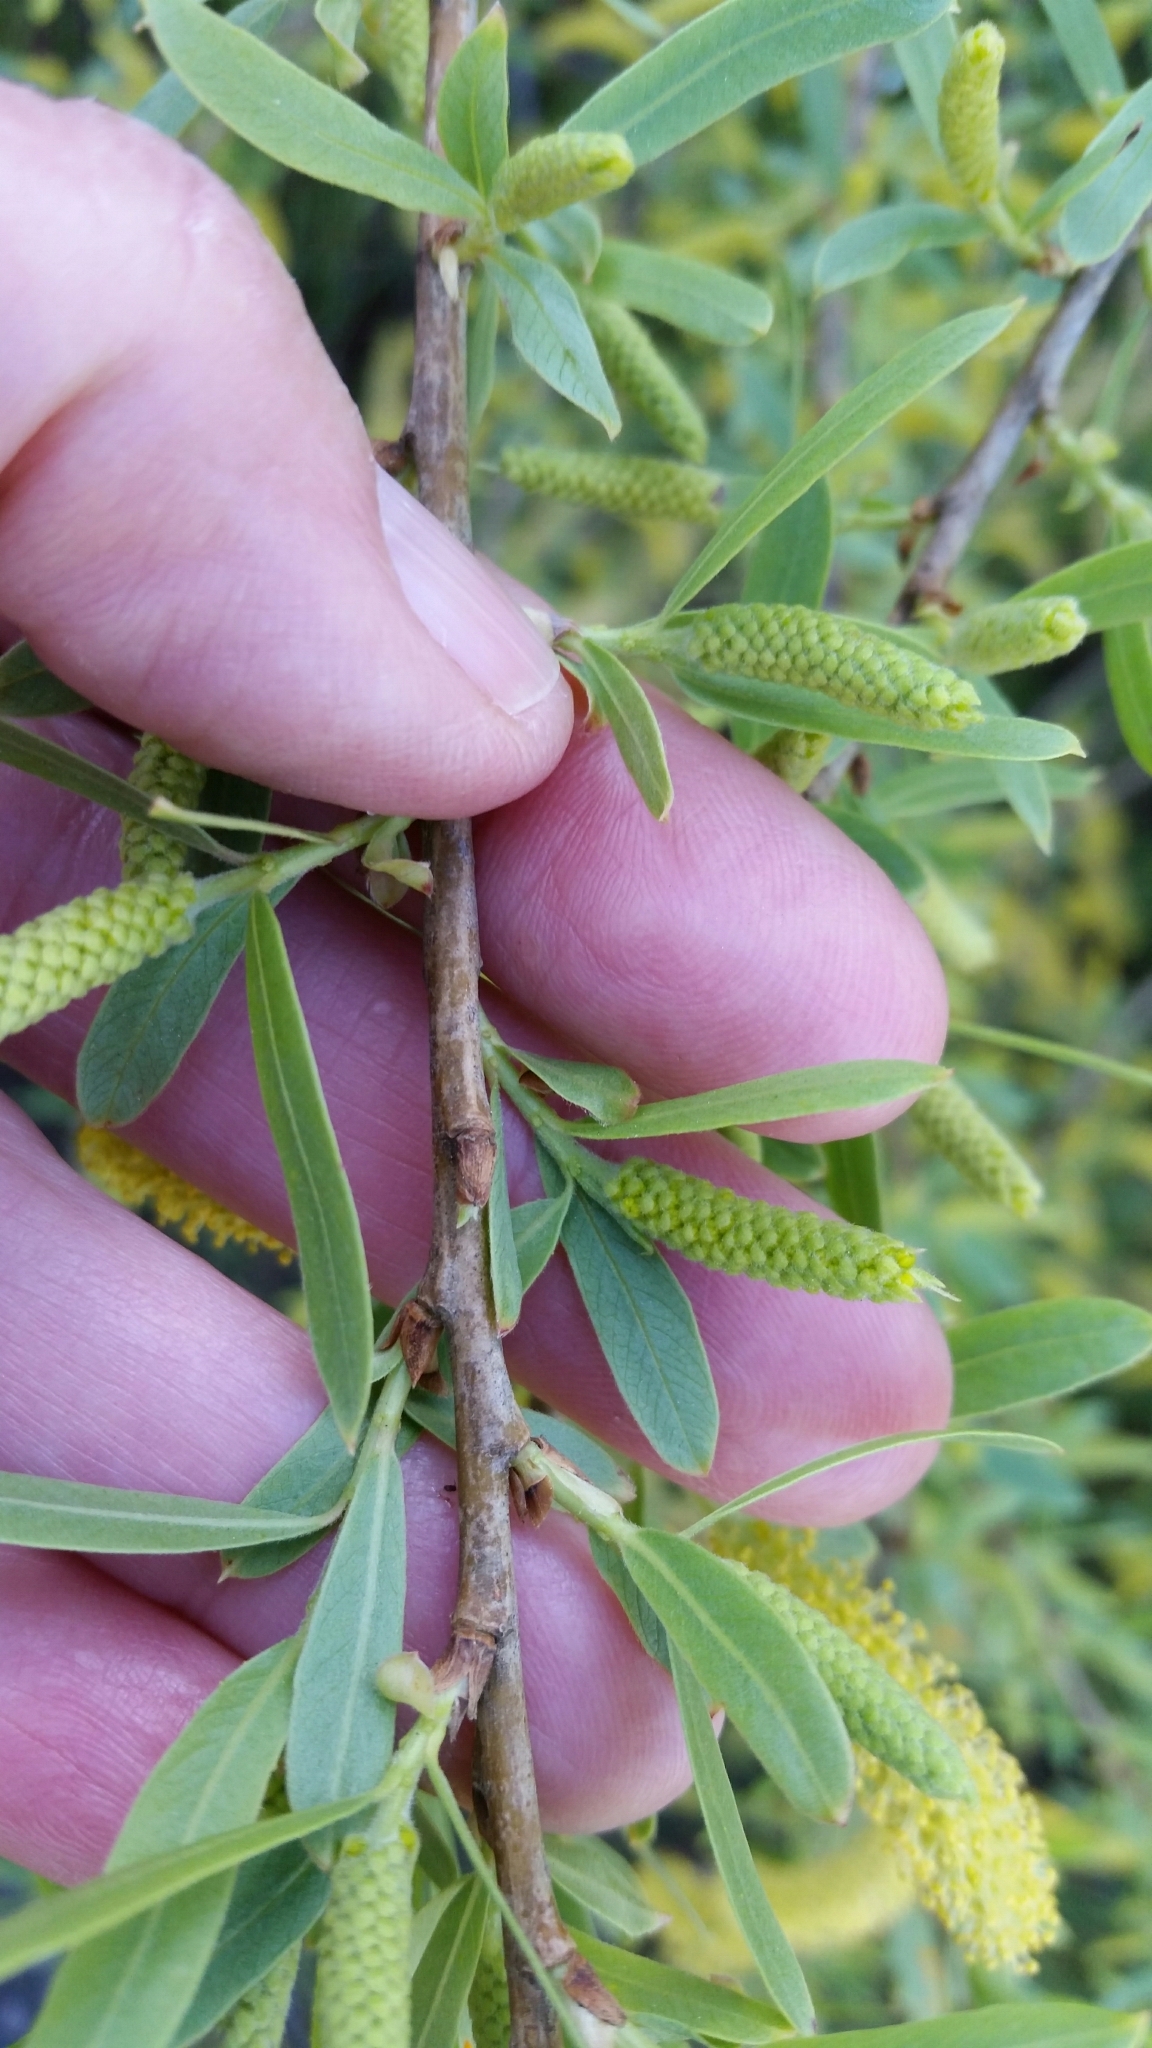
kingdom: Plantae
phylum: Tracheophyta
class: Magnoliopsida
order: Malpighiales
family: Salicaceae
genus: Salix
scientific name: Salix gooddingii
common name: Goodding's willow
